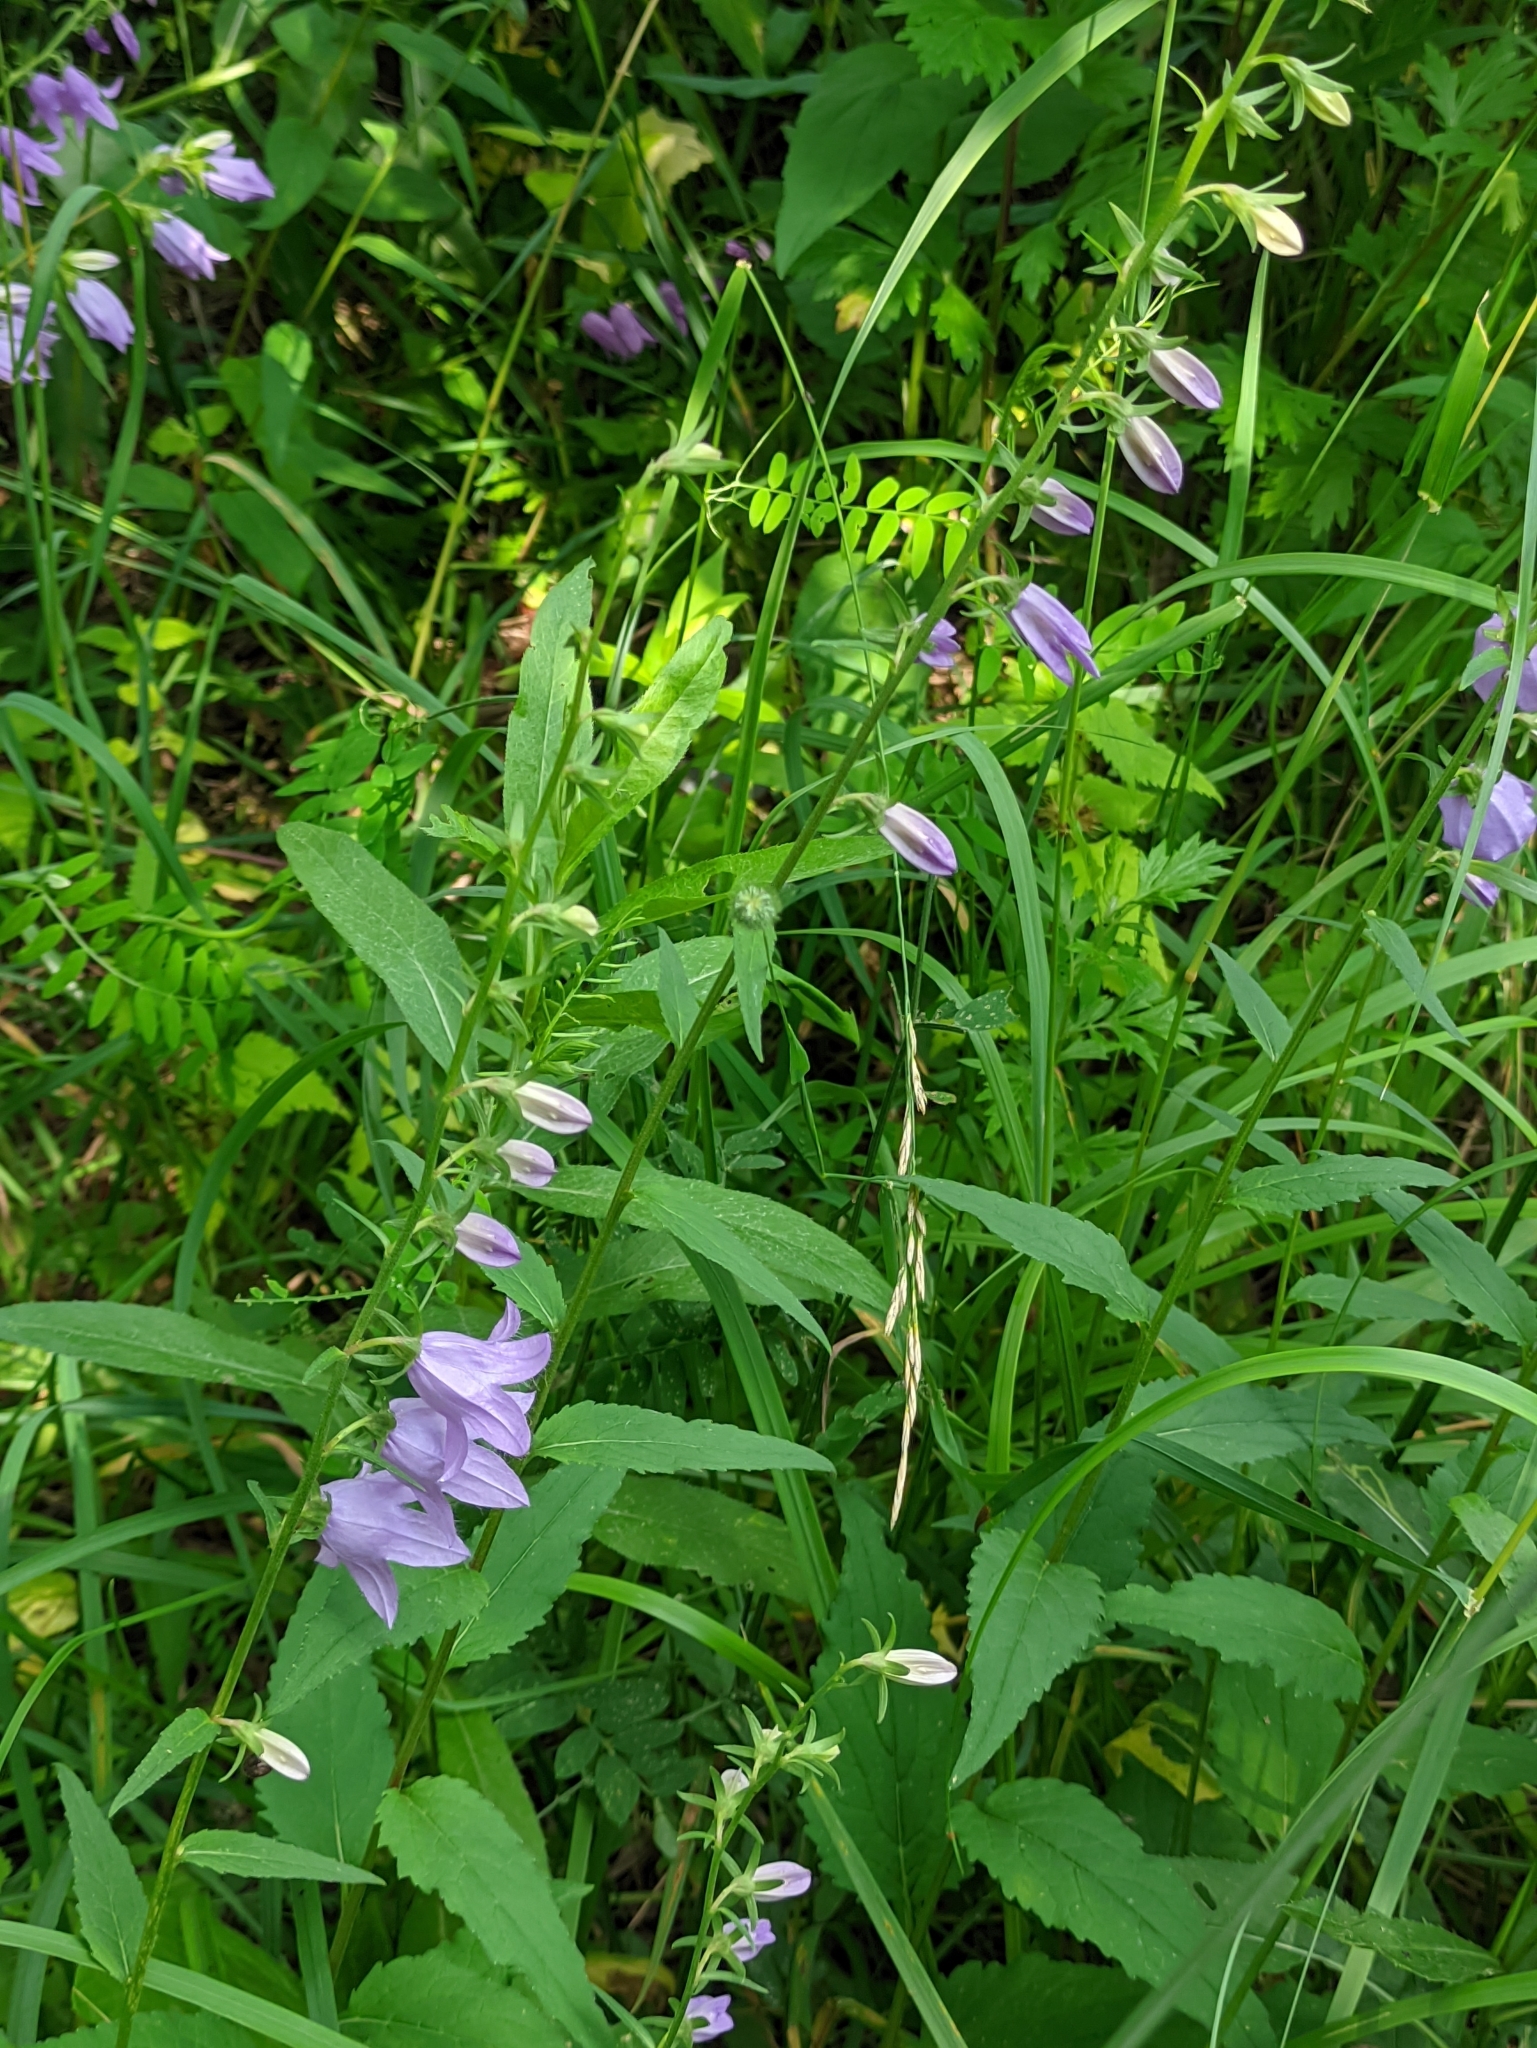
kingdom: Plantae
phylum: Tracheophyta
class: Magnoliopsida
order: Asterales
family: Campanulaceae
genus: Campanula
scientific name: Campanula rapunculoides
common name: Creeping bellflower
